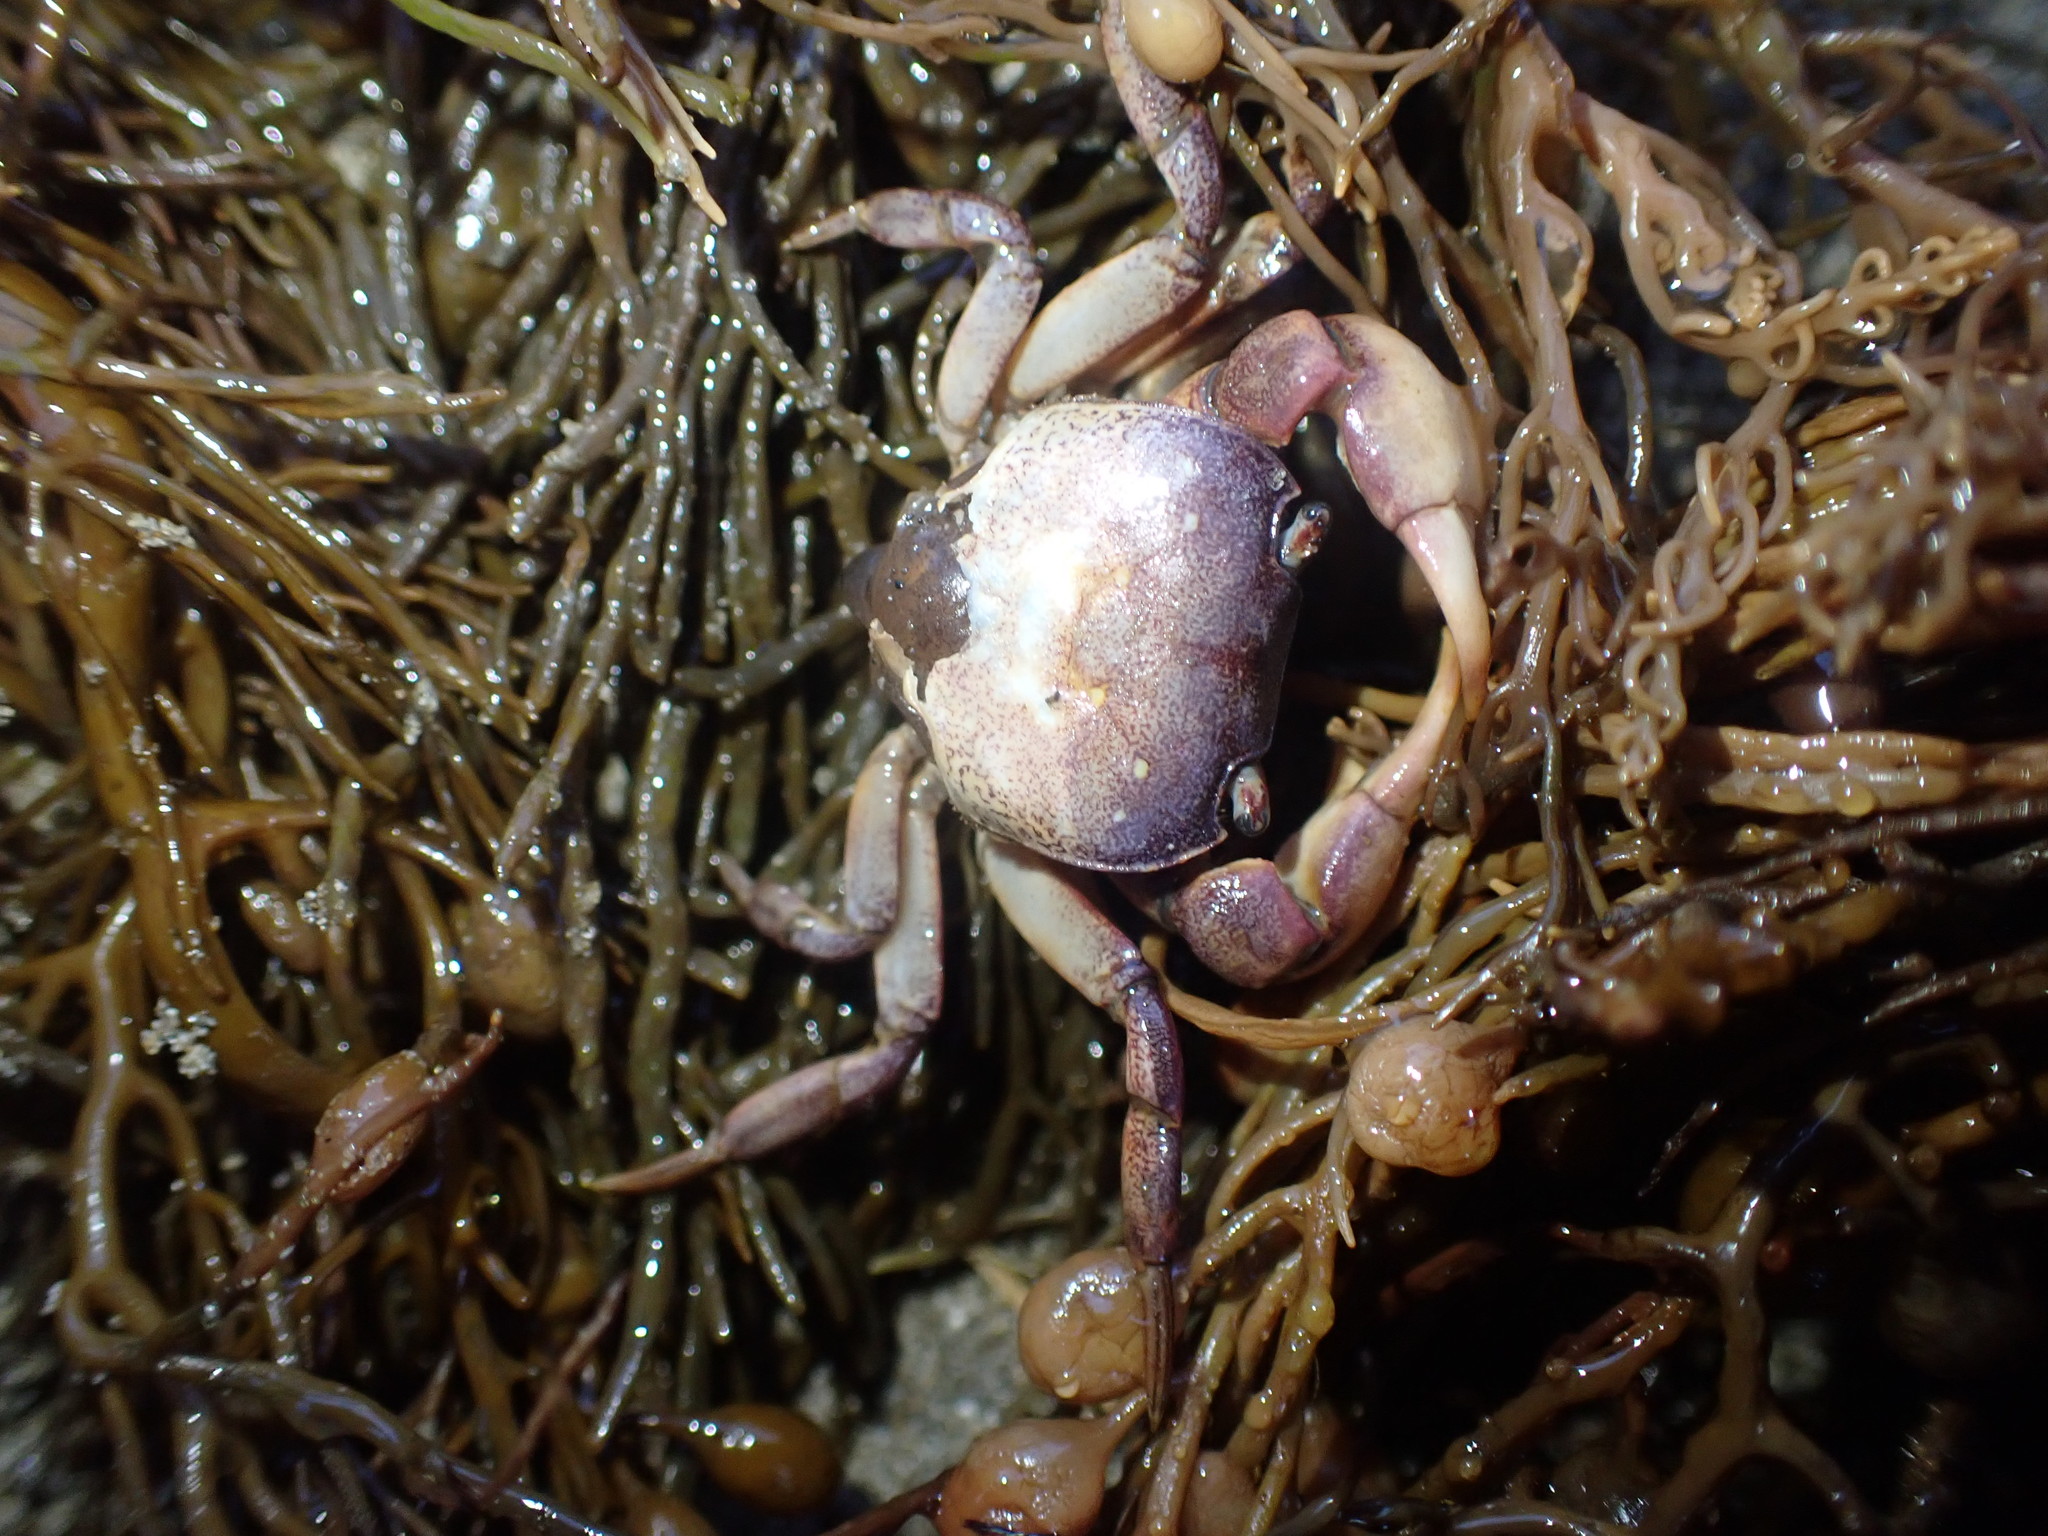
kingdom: Animalia
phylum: Arthropoda
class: Malacostraca
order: Decapoda
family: Varunidae
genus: Cyclograpsus
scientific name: Cyclograpsus lavauxi
